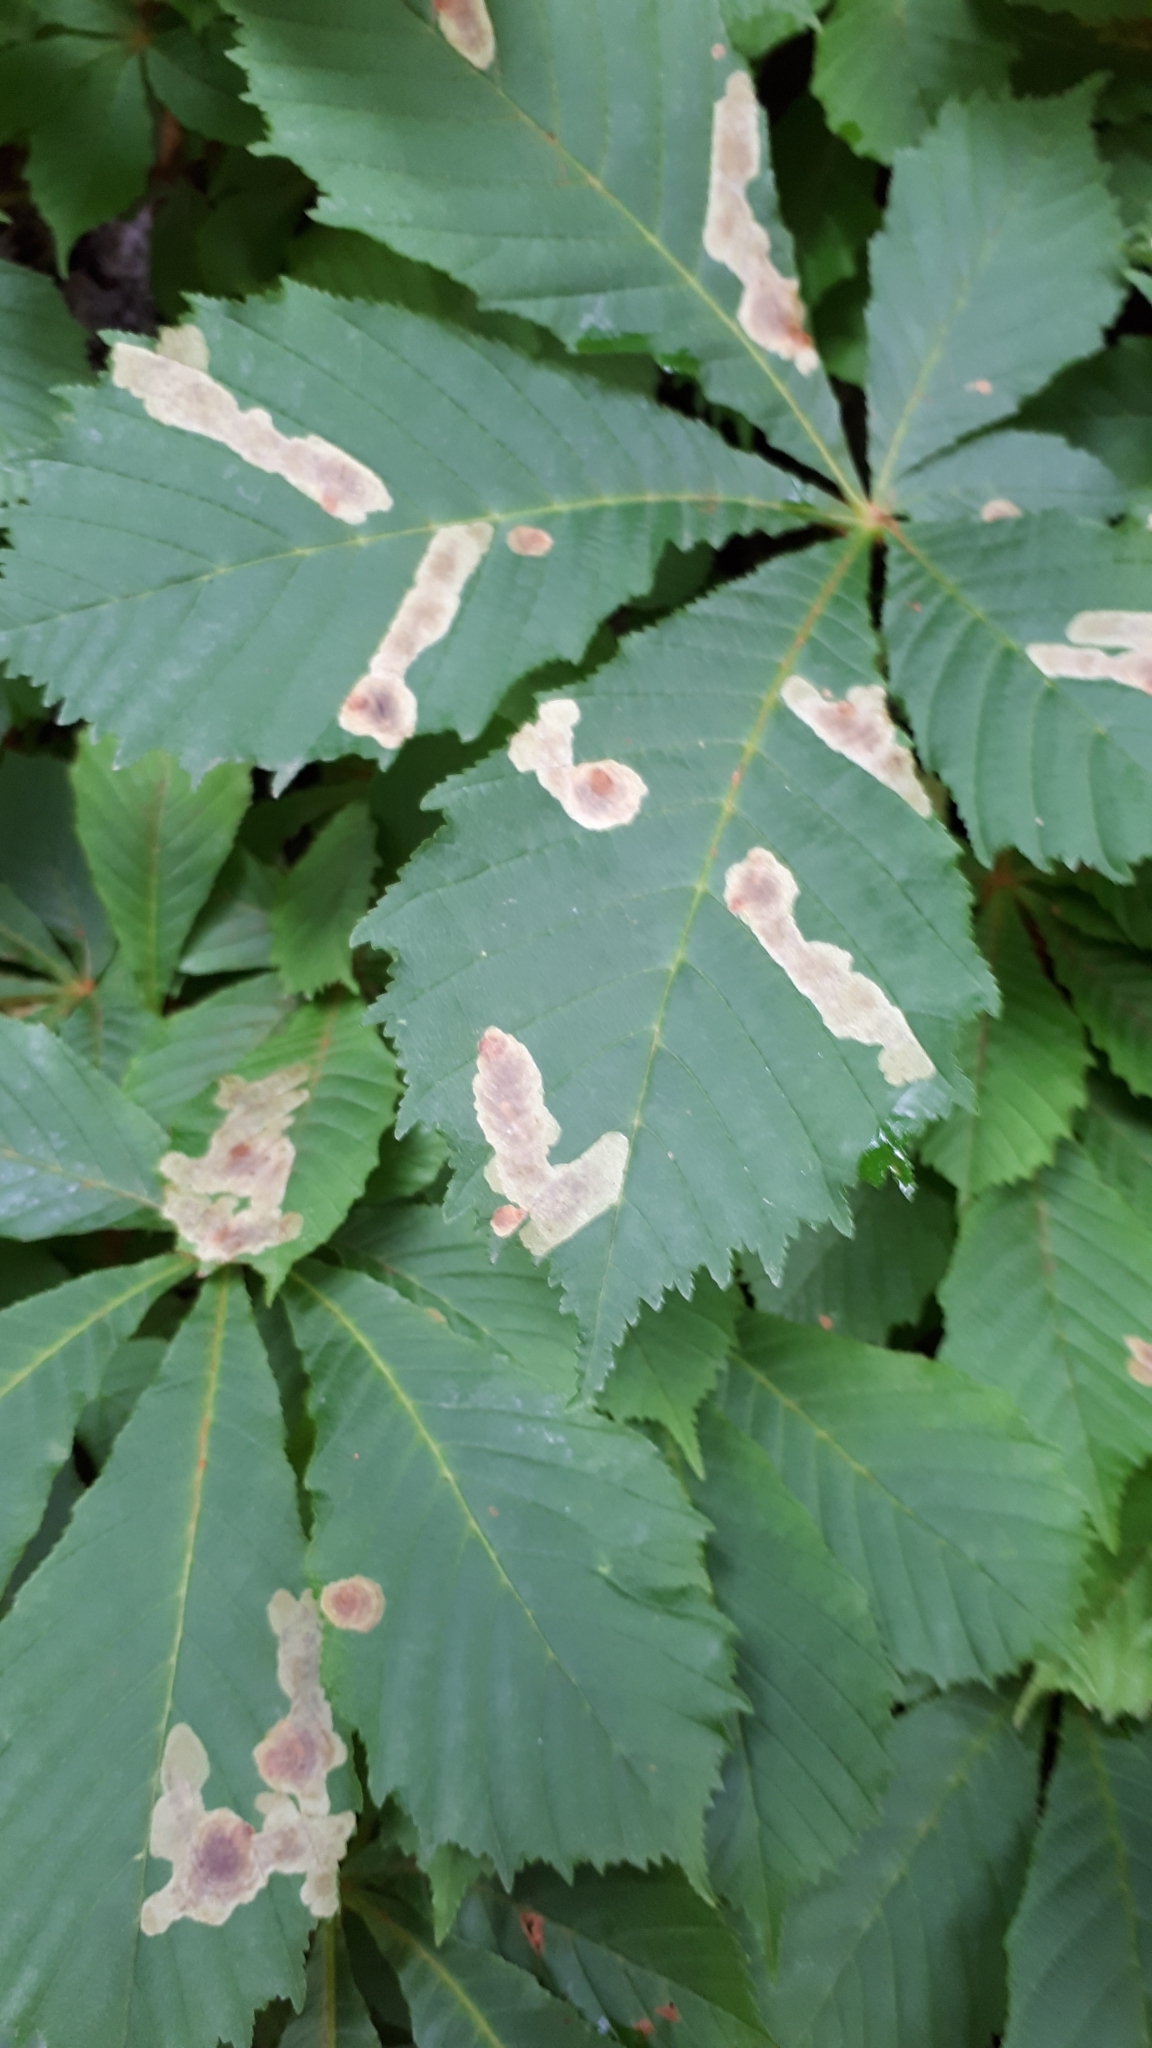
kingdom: Animalia
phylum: Arthropoda
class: Insecta
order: Lepidoptera
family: Gracillariidae
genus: Cameraria
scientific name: Cameraria ohridella
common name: Horse-chestnut leaf-miner
